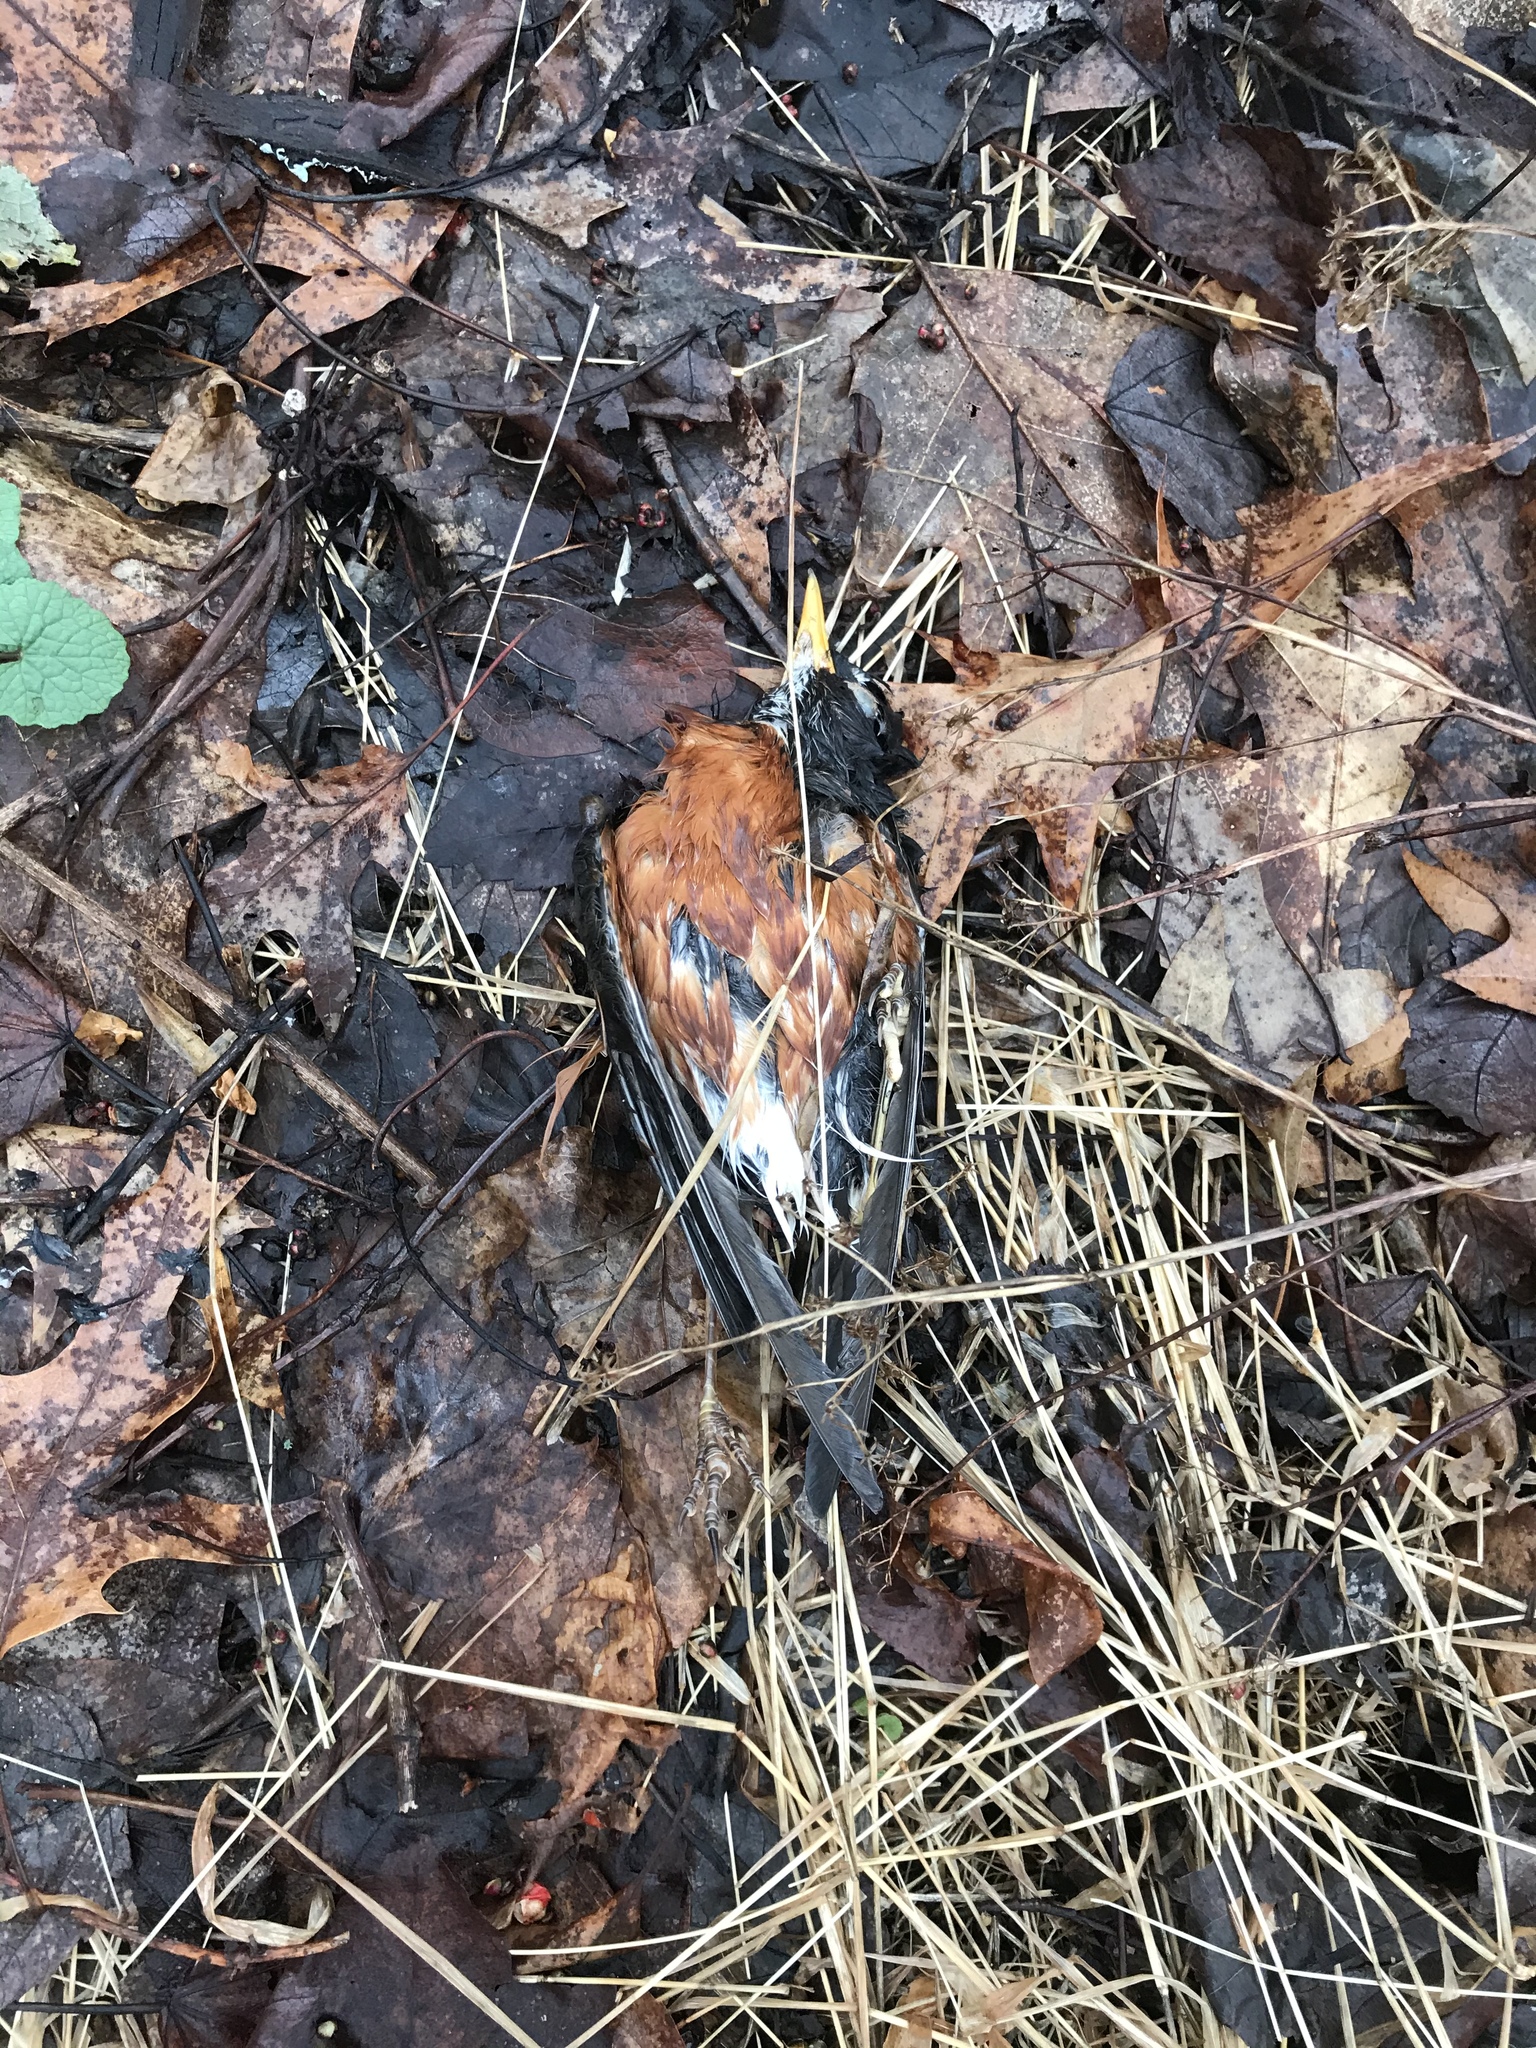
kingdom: Animalia
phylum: Chordata
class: Aves
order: Passeriformes
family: Turdidae
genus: Turdus
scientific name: Turdus migratorius
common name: American robin
